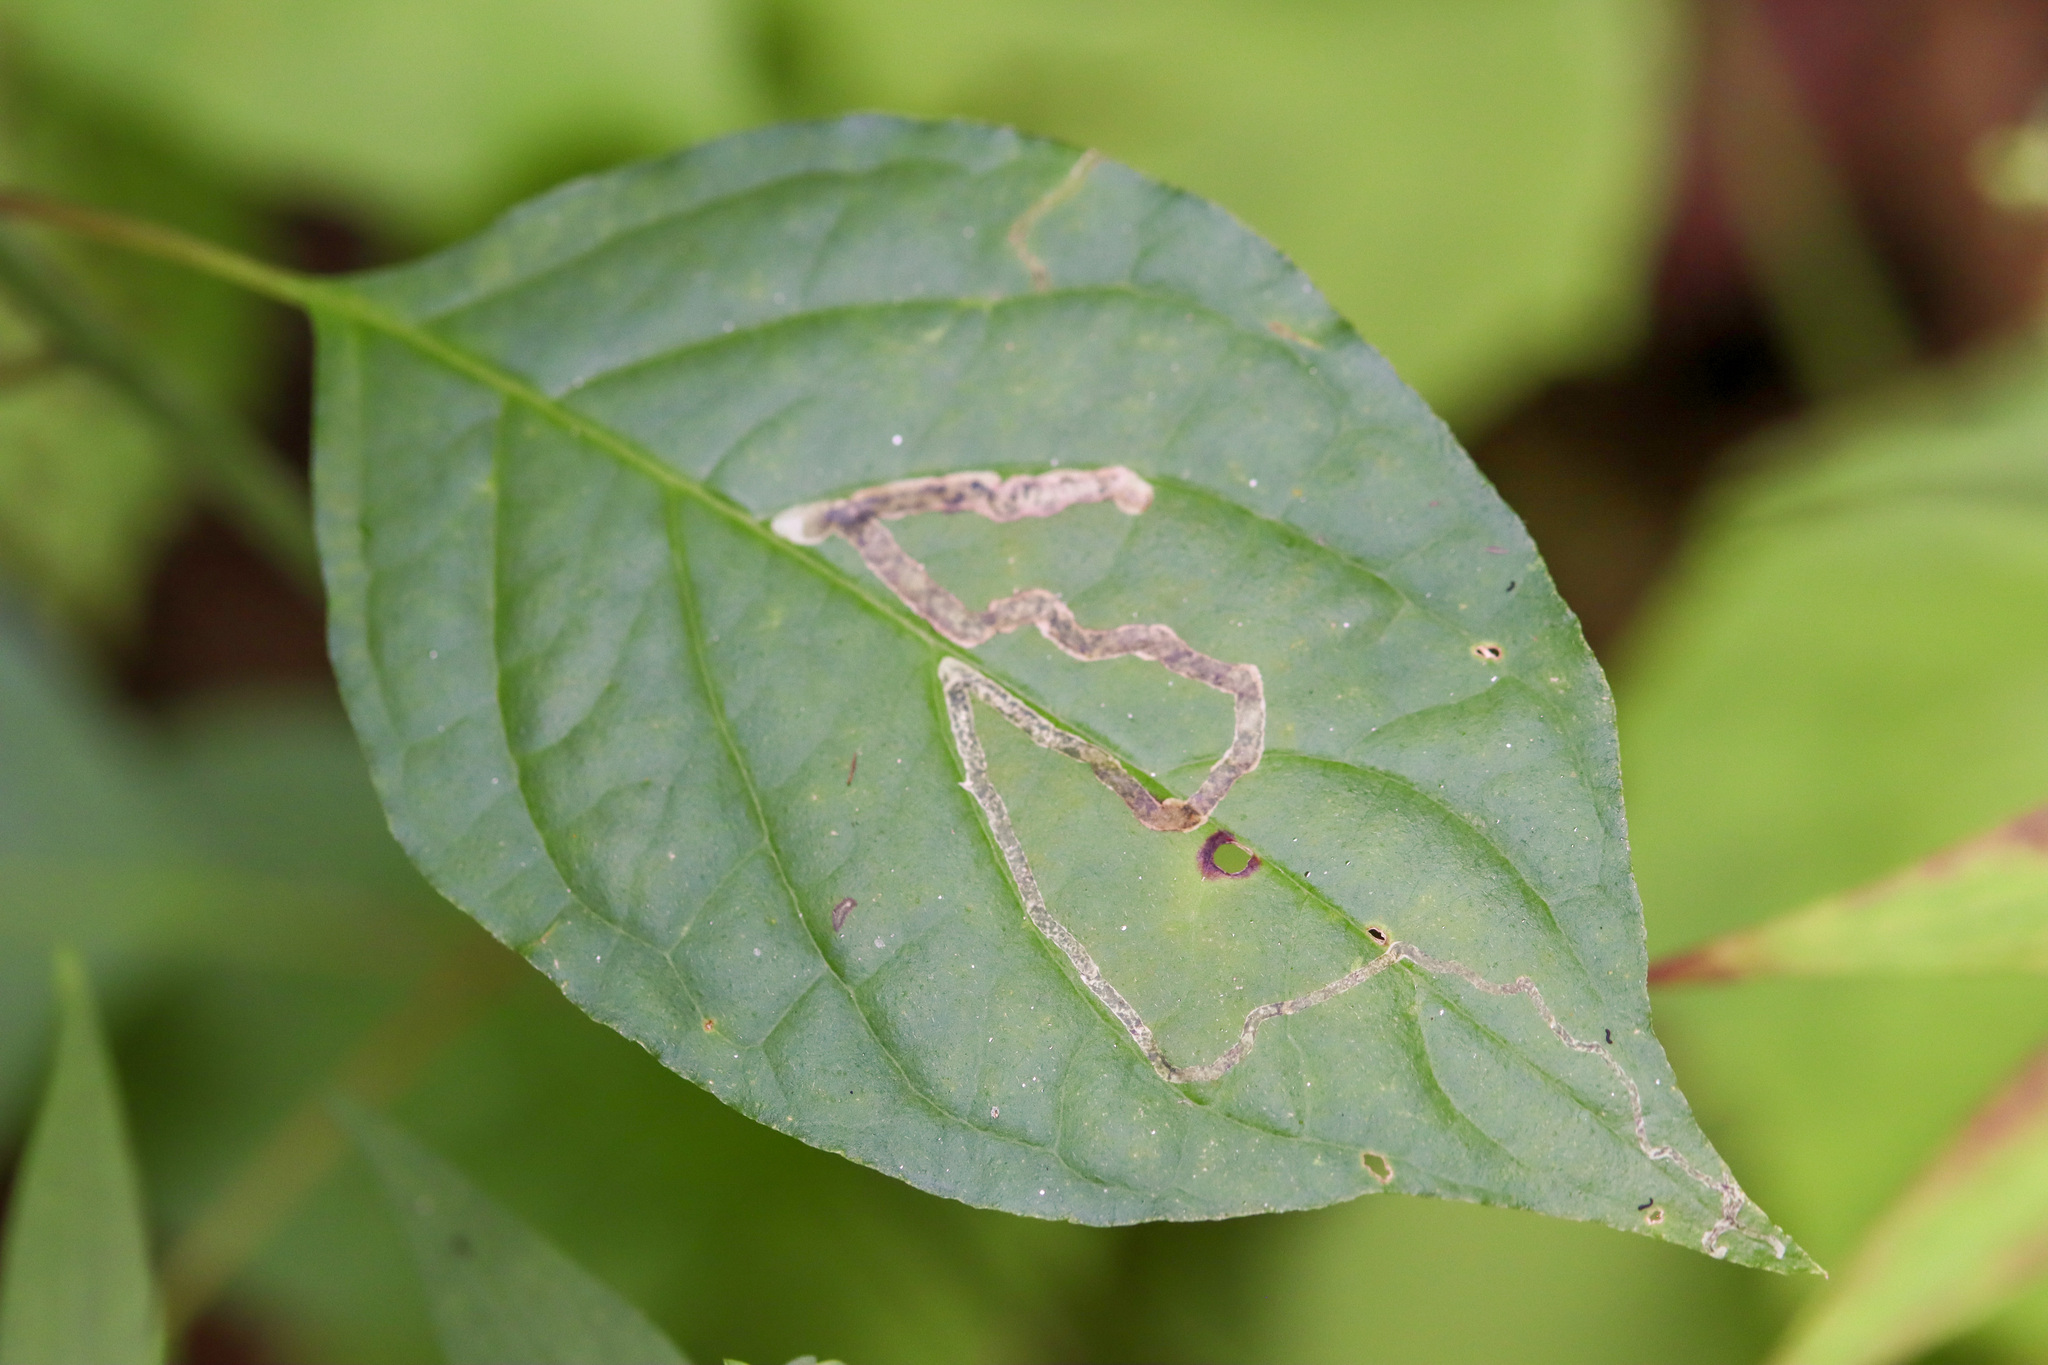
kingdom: Animalia
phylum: Arthropoda
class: Insecta
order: Diptera
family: Agromyzidae
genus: Phytomyza
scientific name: Phytomyza agromyzina
